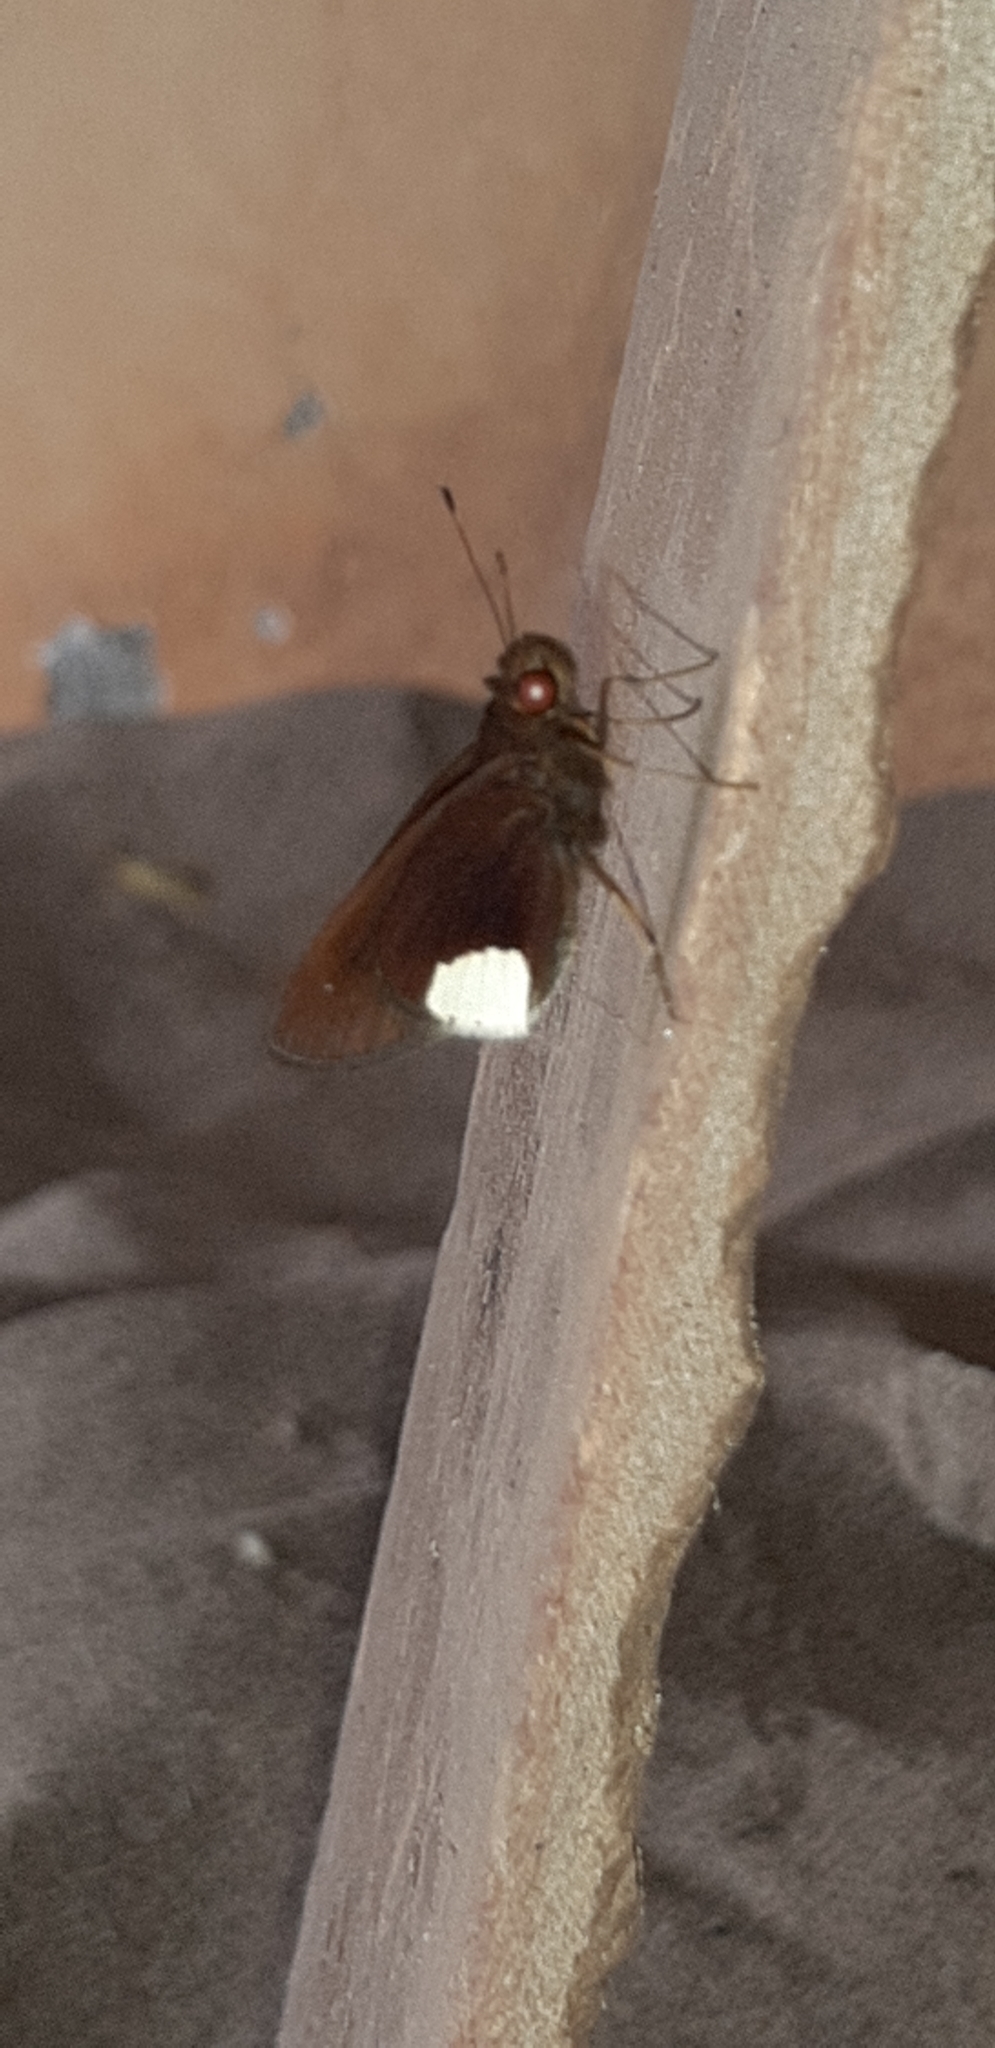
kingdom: Animalia
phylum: Arthropoda
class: Insecta
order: Lepidoptera
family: Hesperiidae
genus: Cobalus
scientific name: Cobalus virbius
